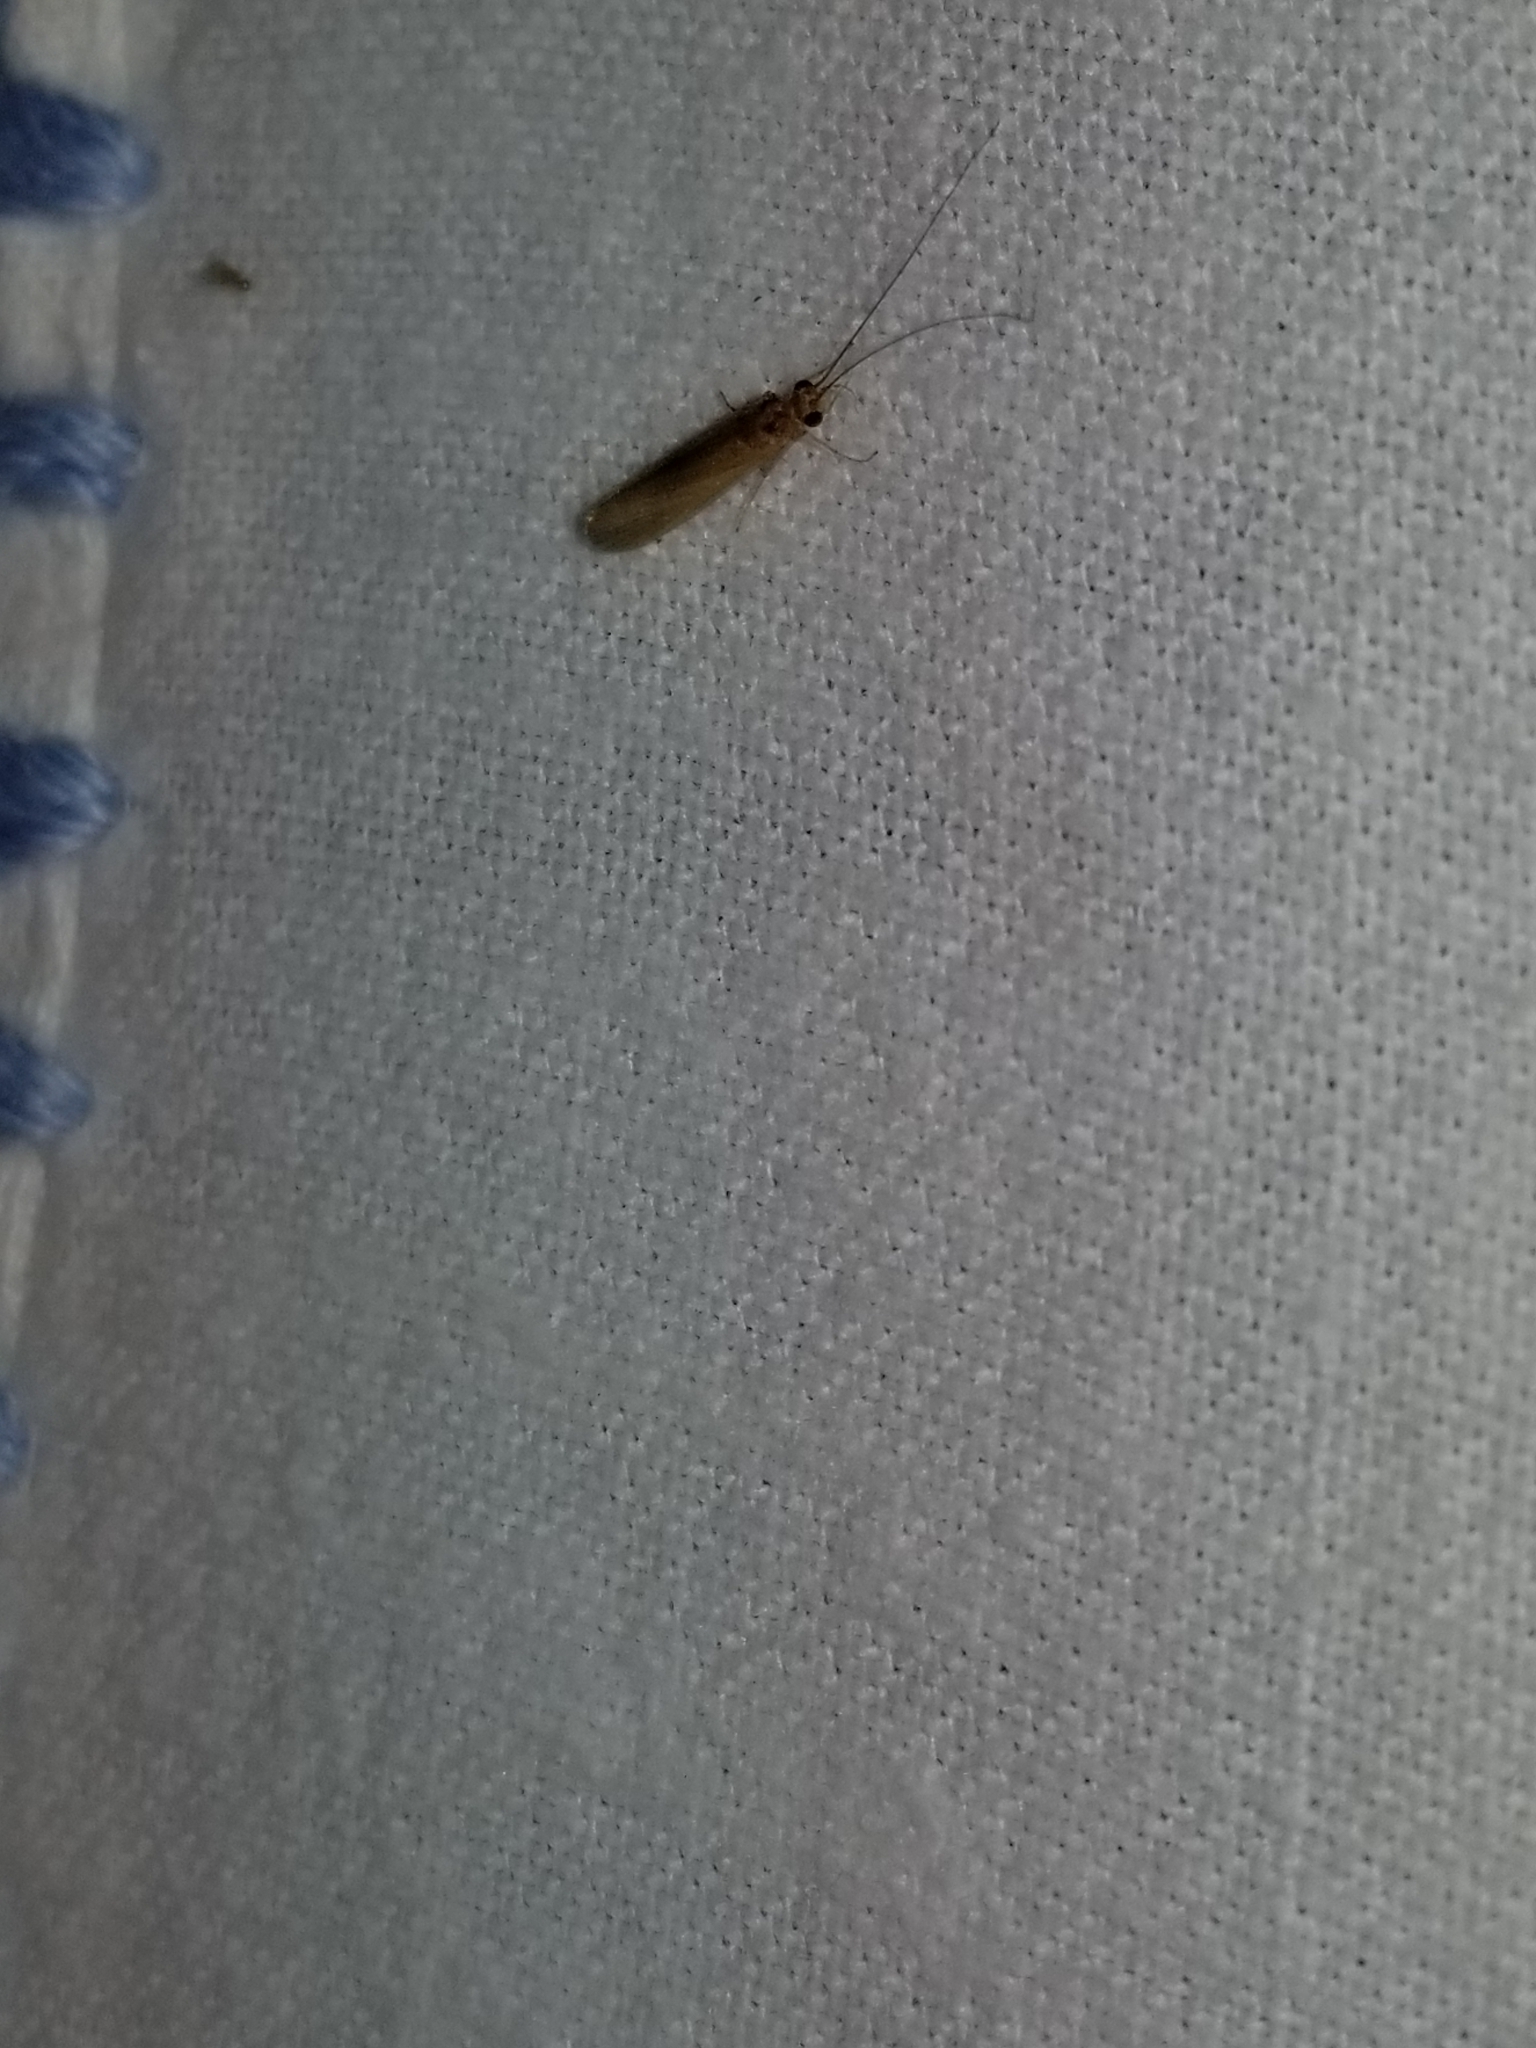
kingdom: Animalia
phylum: Arthropoda
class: Insecta
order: Trichoptera
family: Hydropsychidae
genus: Potamyia
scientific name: Potamyia flava
